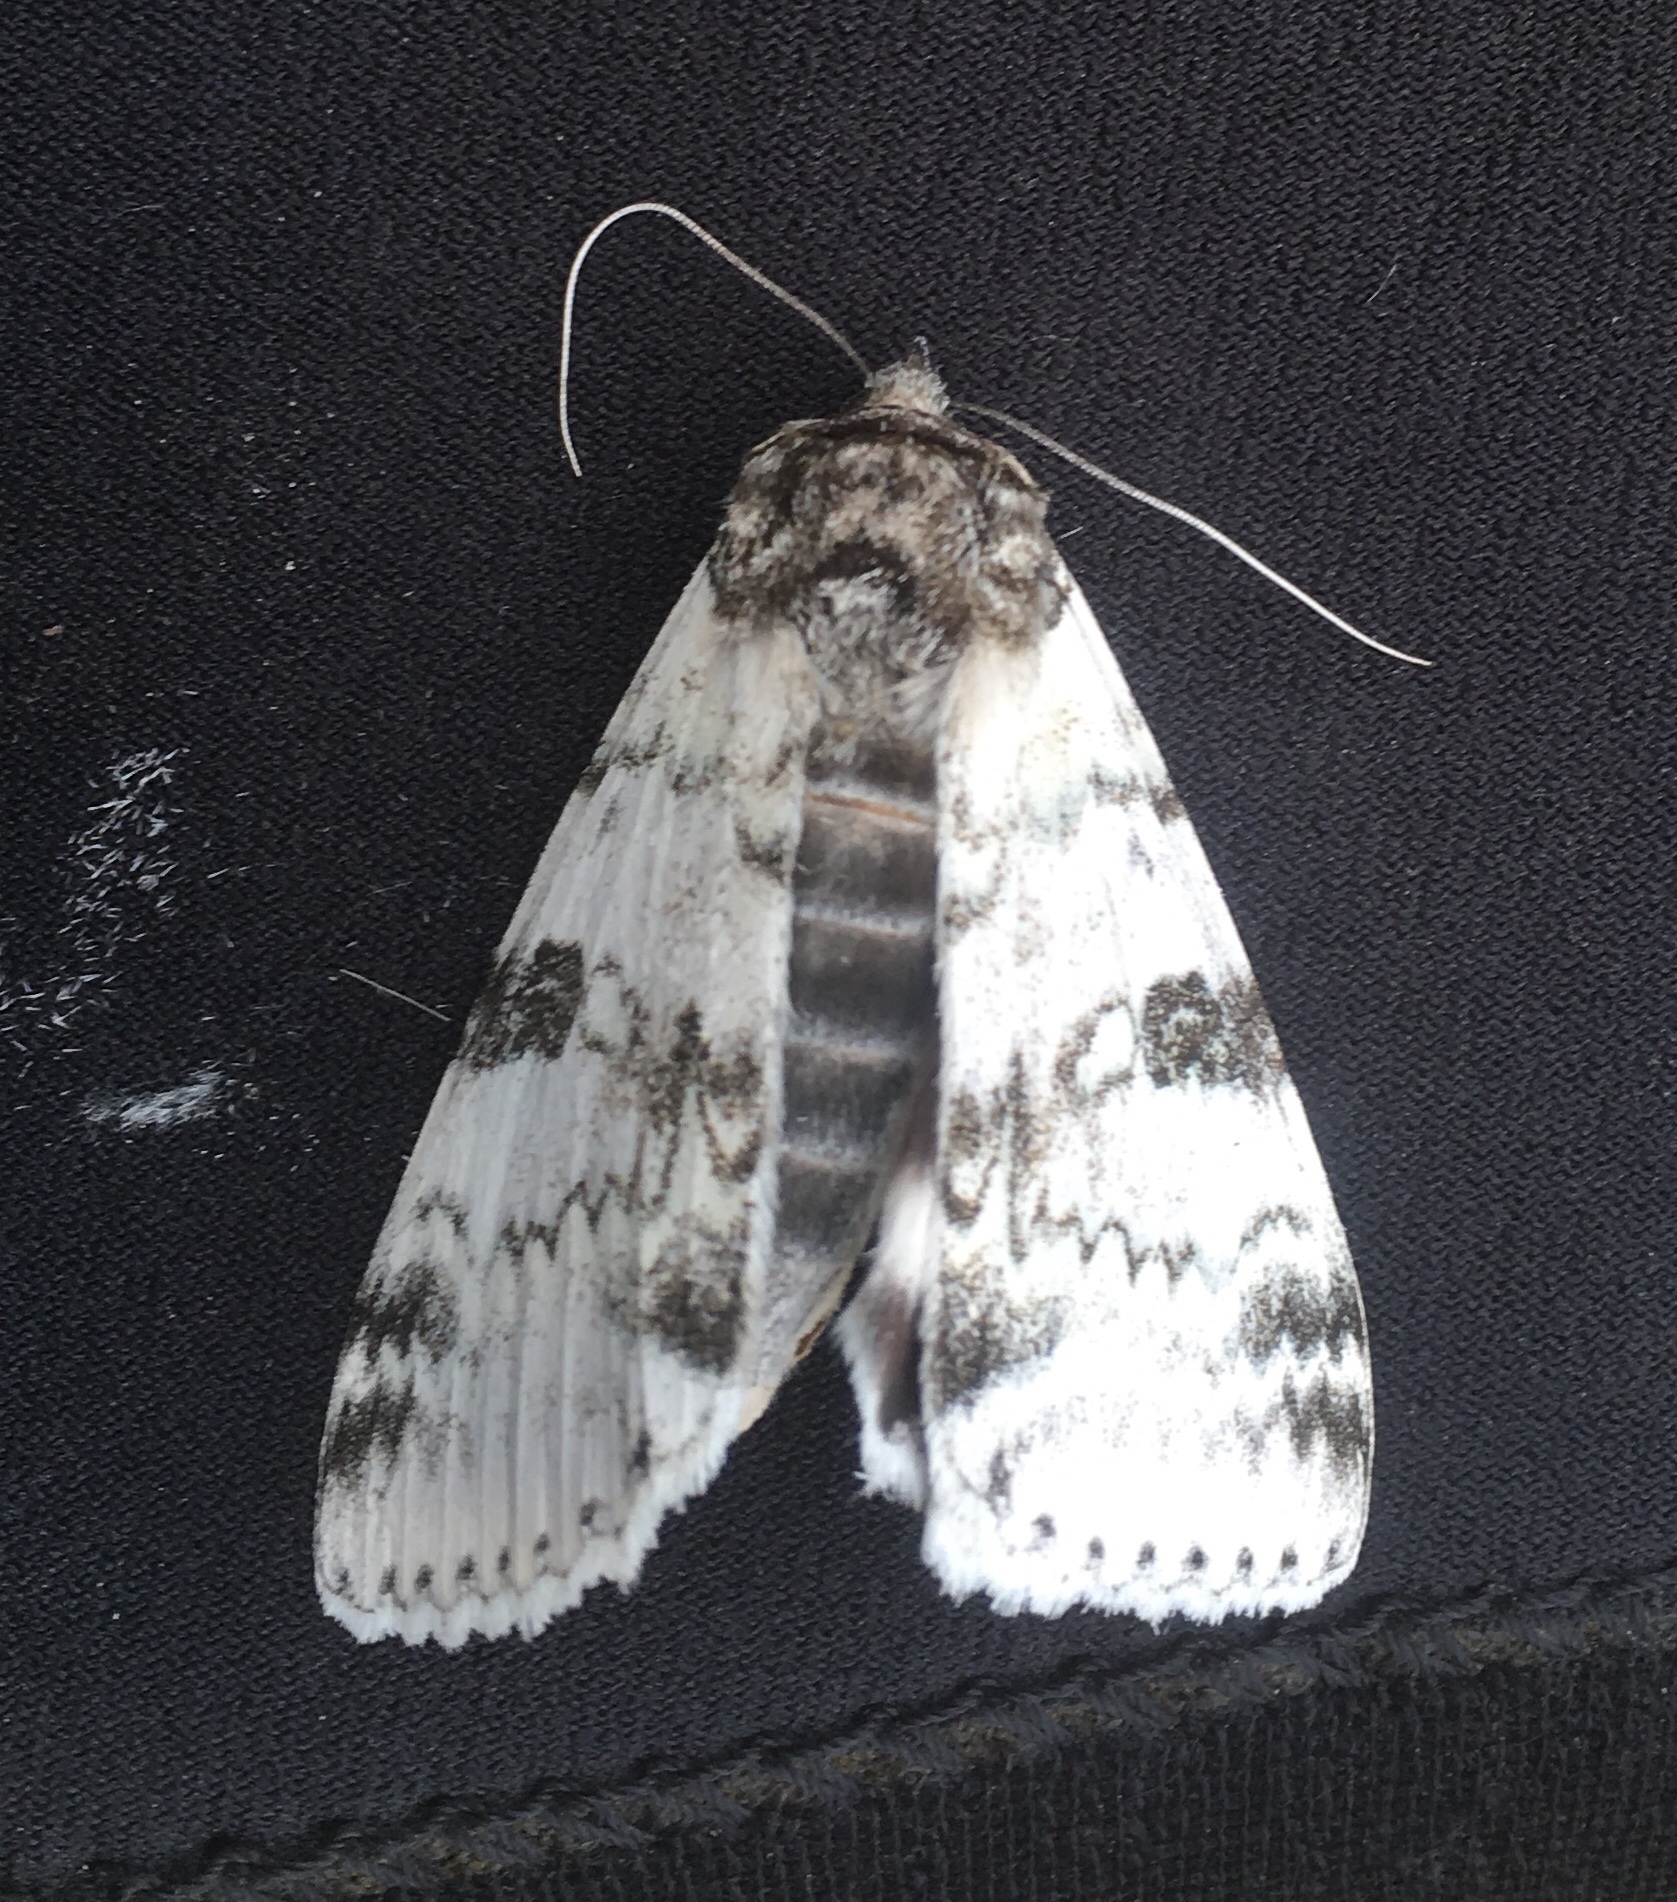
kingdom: Animalia
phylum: Arthropoda
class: Insecta
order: Lepidoptera
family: Erebidae
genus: Catocala
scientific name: Catocala relicta
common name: White underwing
